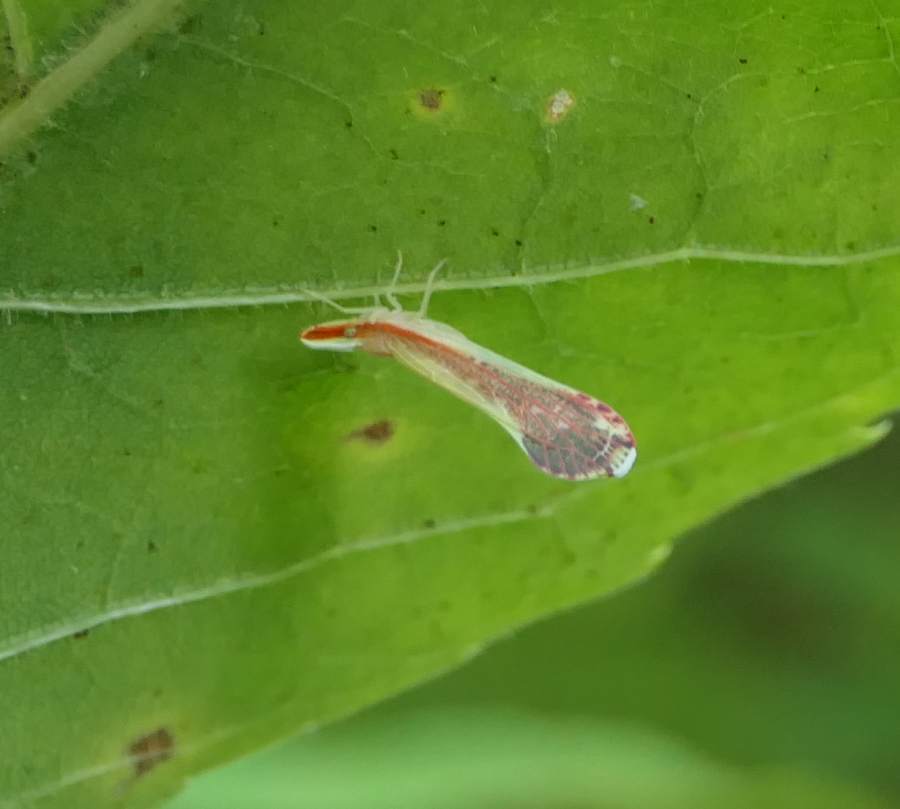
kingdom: Animalia
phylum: Arthropoda
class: Insecta
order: Hemiptera
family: Derbidae
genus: Shellenius
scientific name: Shellenius ballii
